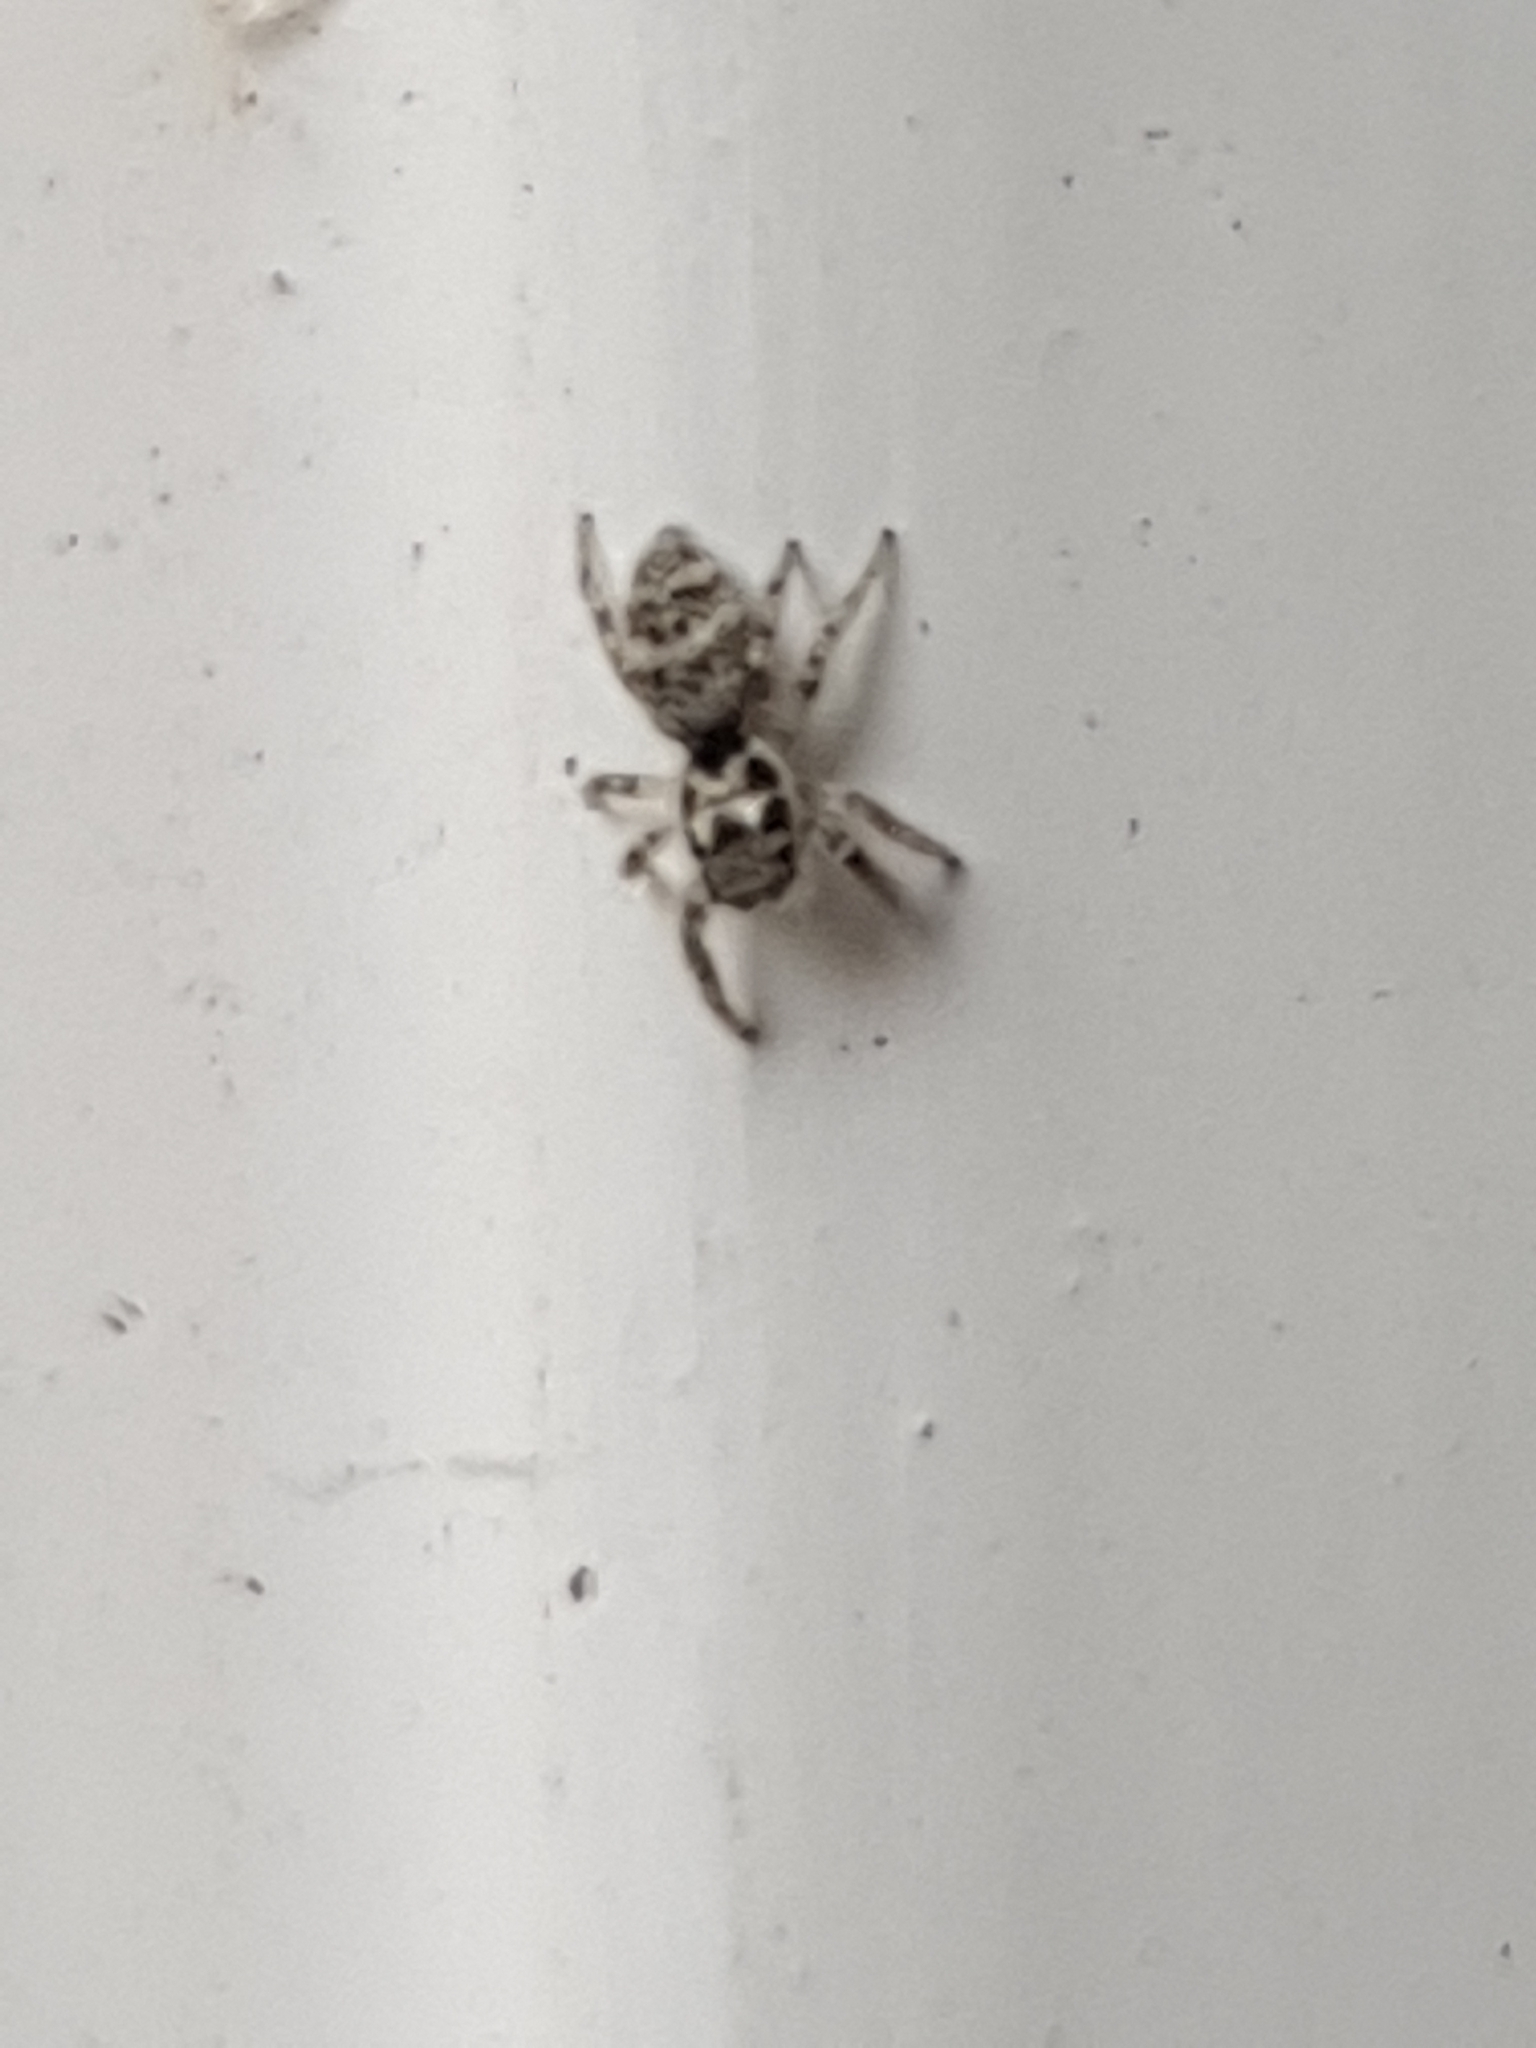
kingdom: Animalia
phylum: Arthropoda
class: Arachnida
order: Araneae
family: Salticidae
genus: Salticus
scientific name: Salticus scenicus
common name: Zebra jumper
